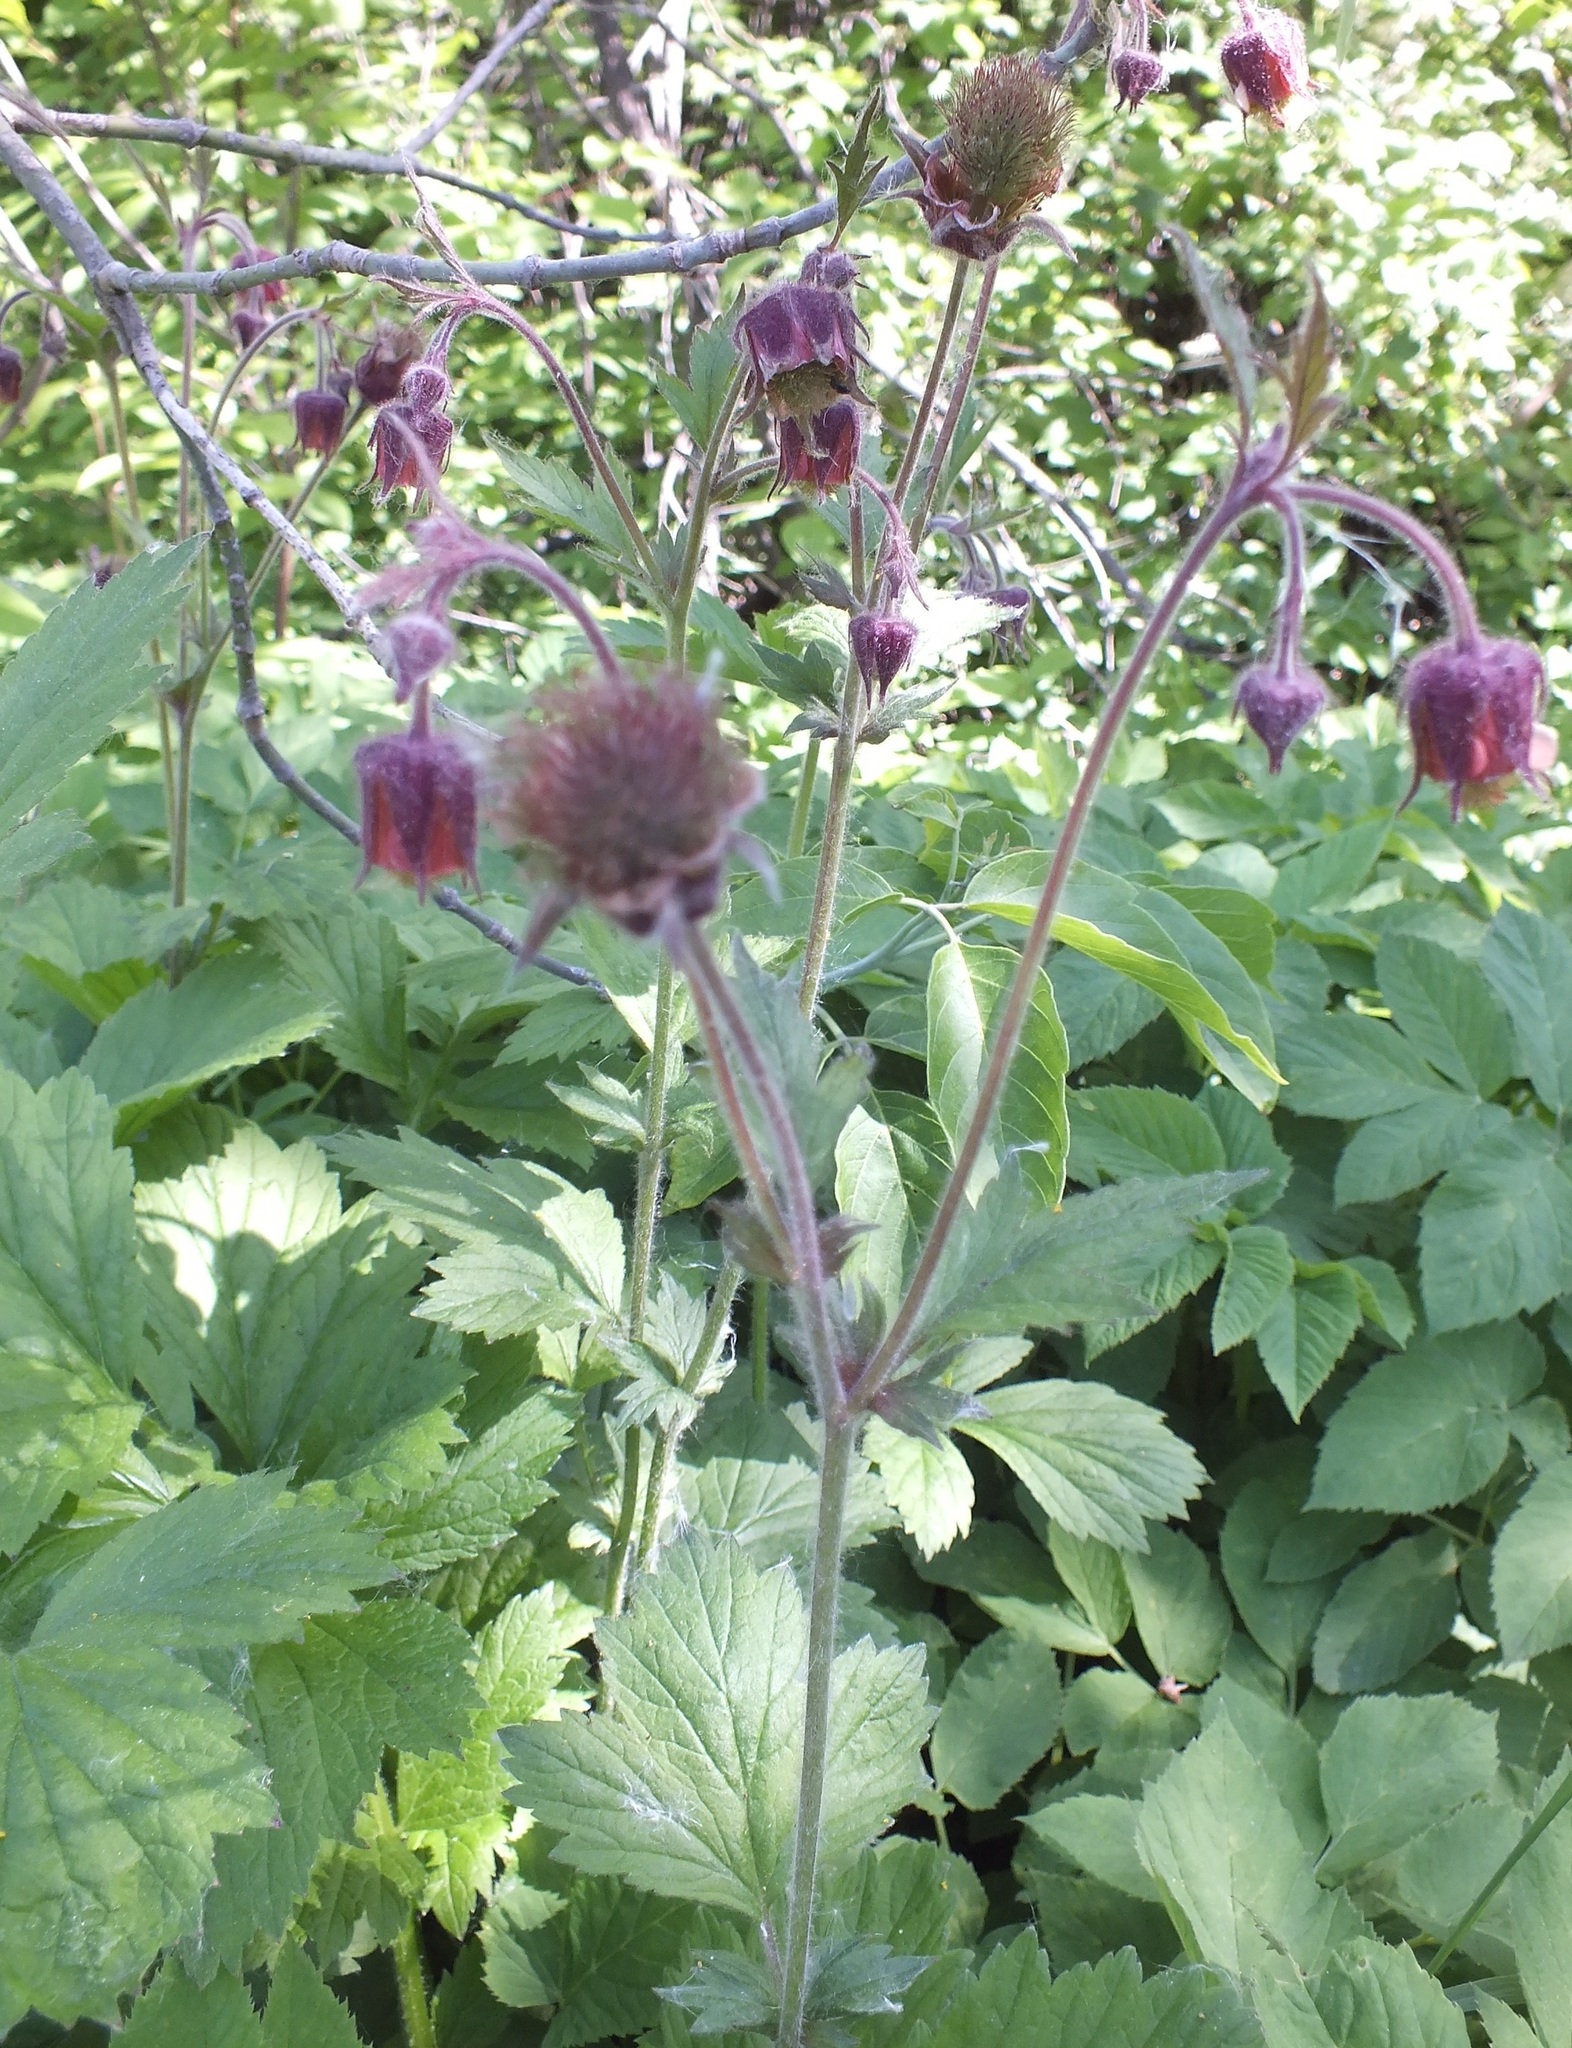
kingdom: Plantae
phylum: Tracheophyta
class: Magnoliopsida
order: Rosales
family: Rosaceae
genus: Geum
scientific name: Geum rivale
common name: Water avens
